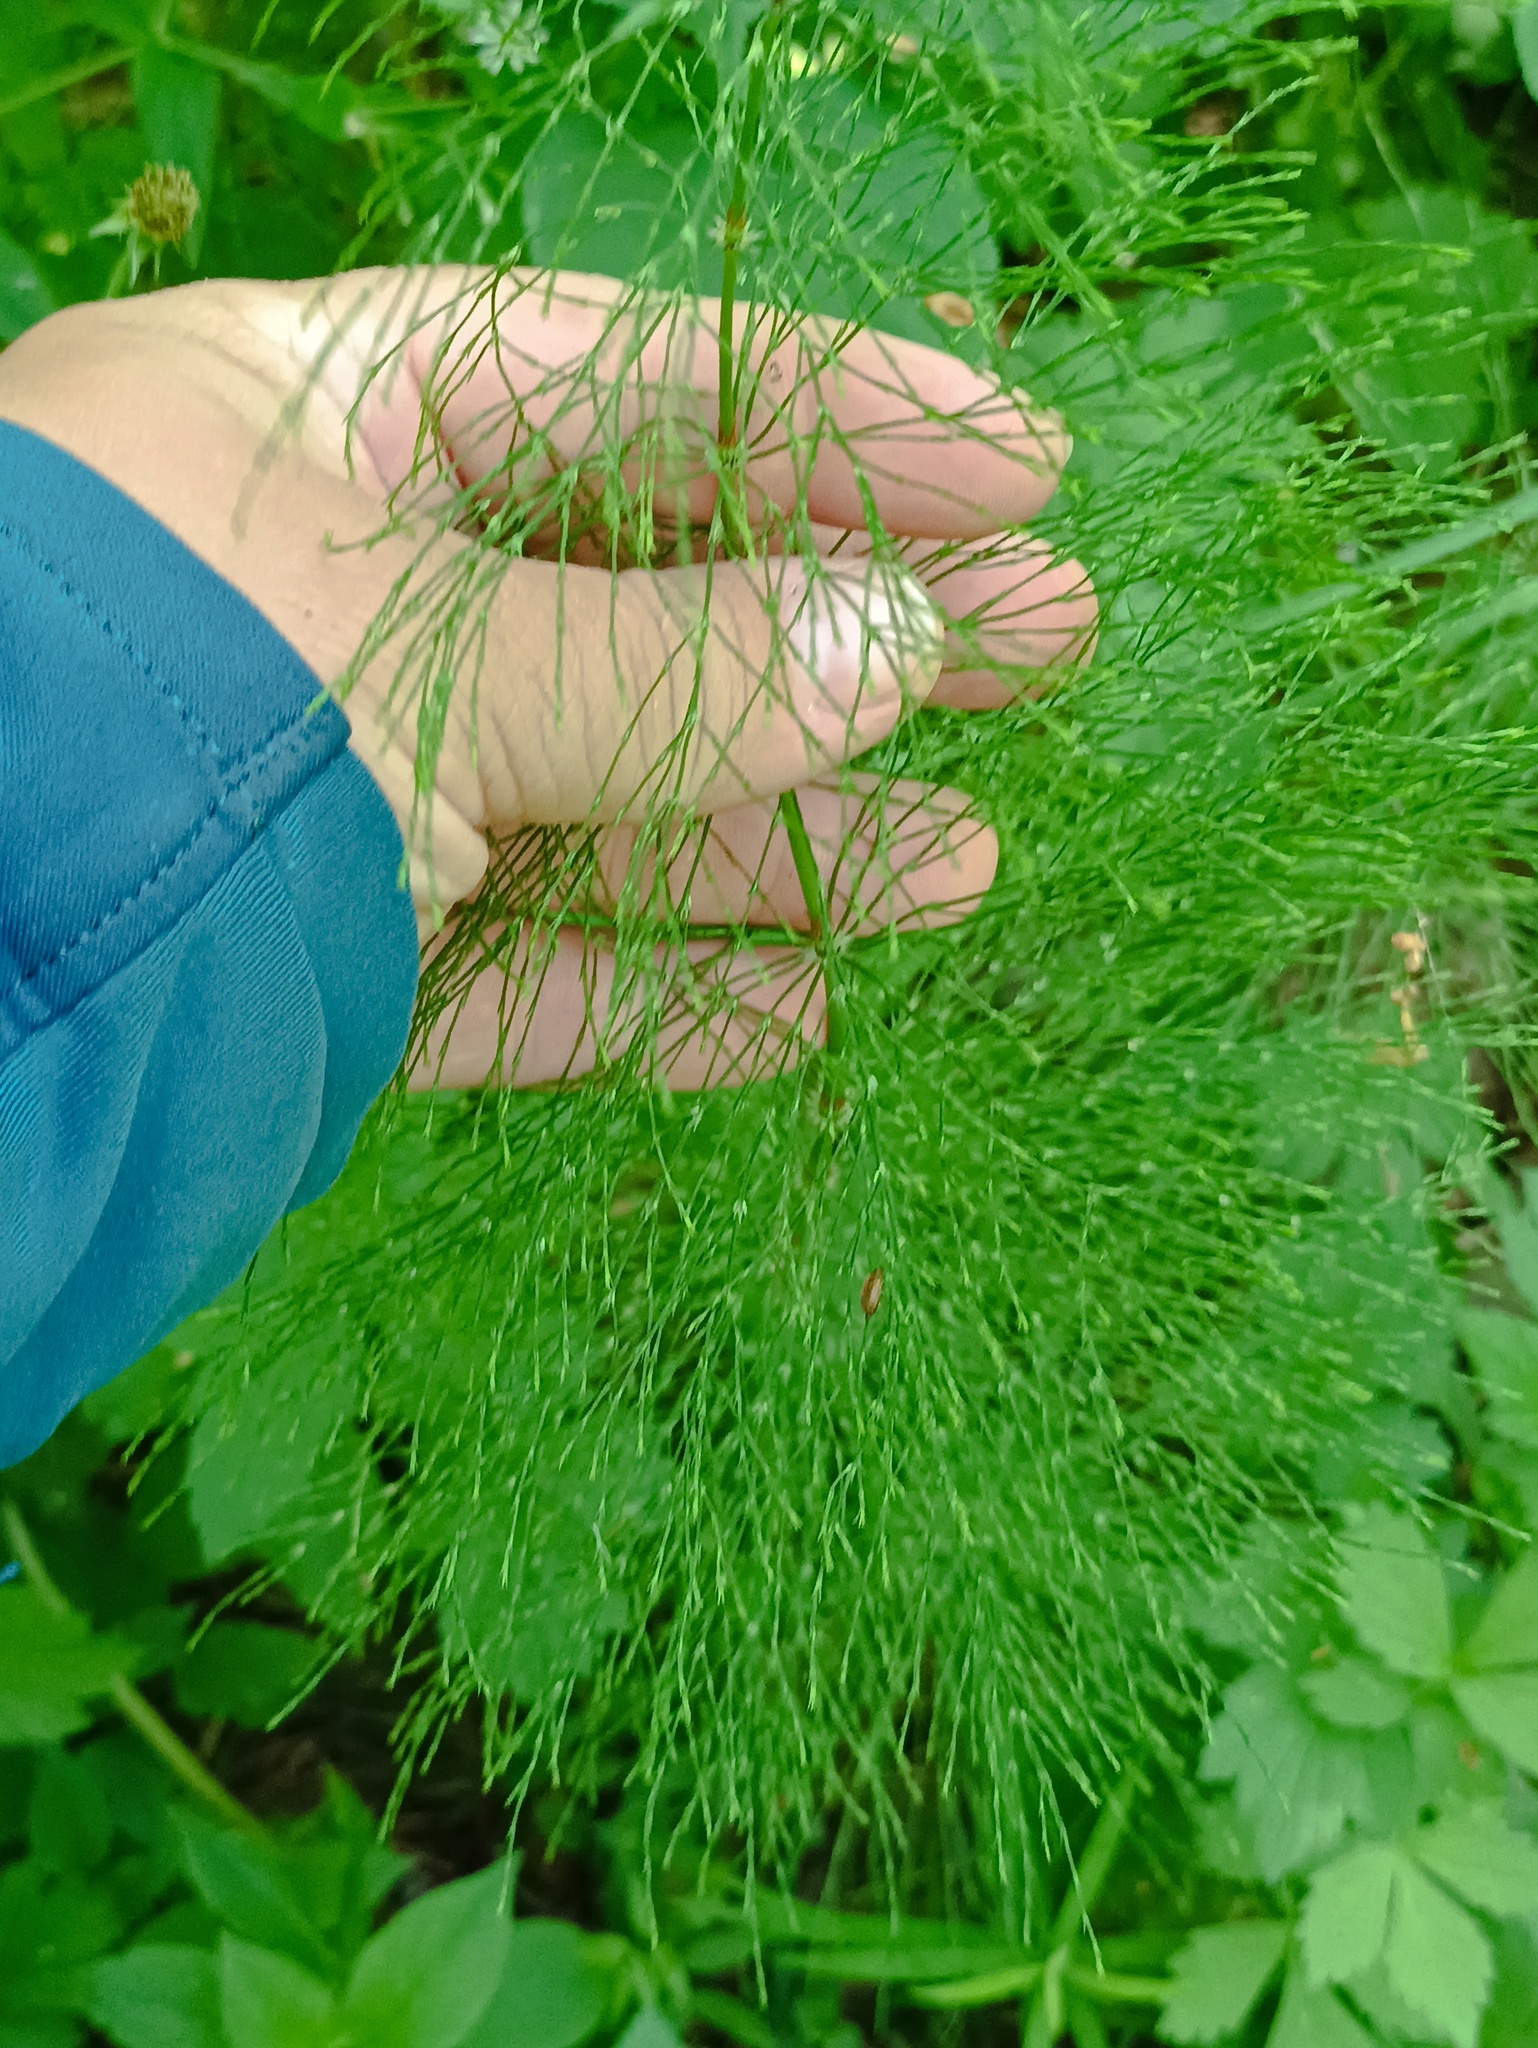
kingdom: Plantae
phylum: Tracheophyta
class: Polypodiopsida
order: Equisetales
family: Equisetaceae
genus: Equisetum
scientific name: Equisetum sylvaticum
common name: Wood horsetail
